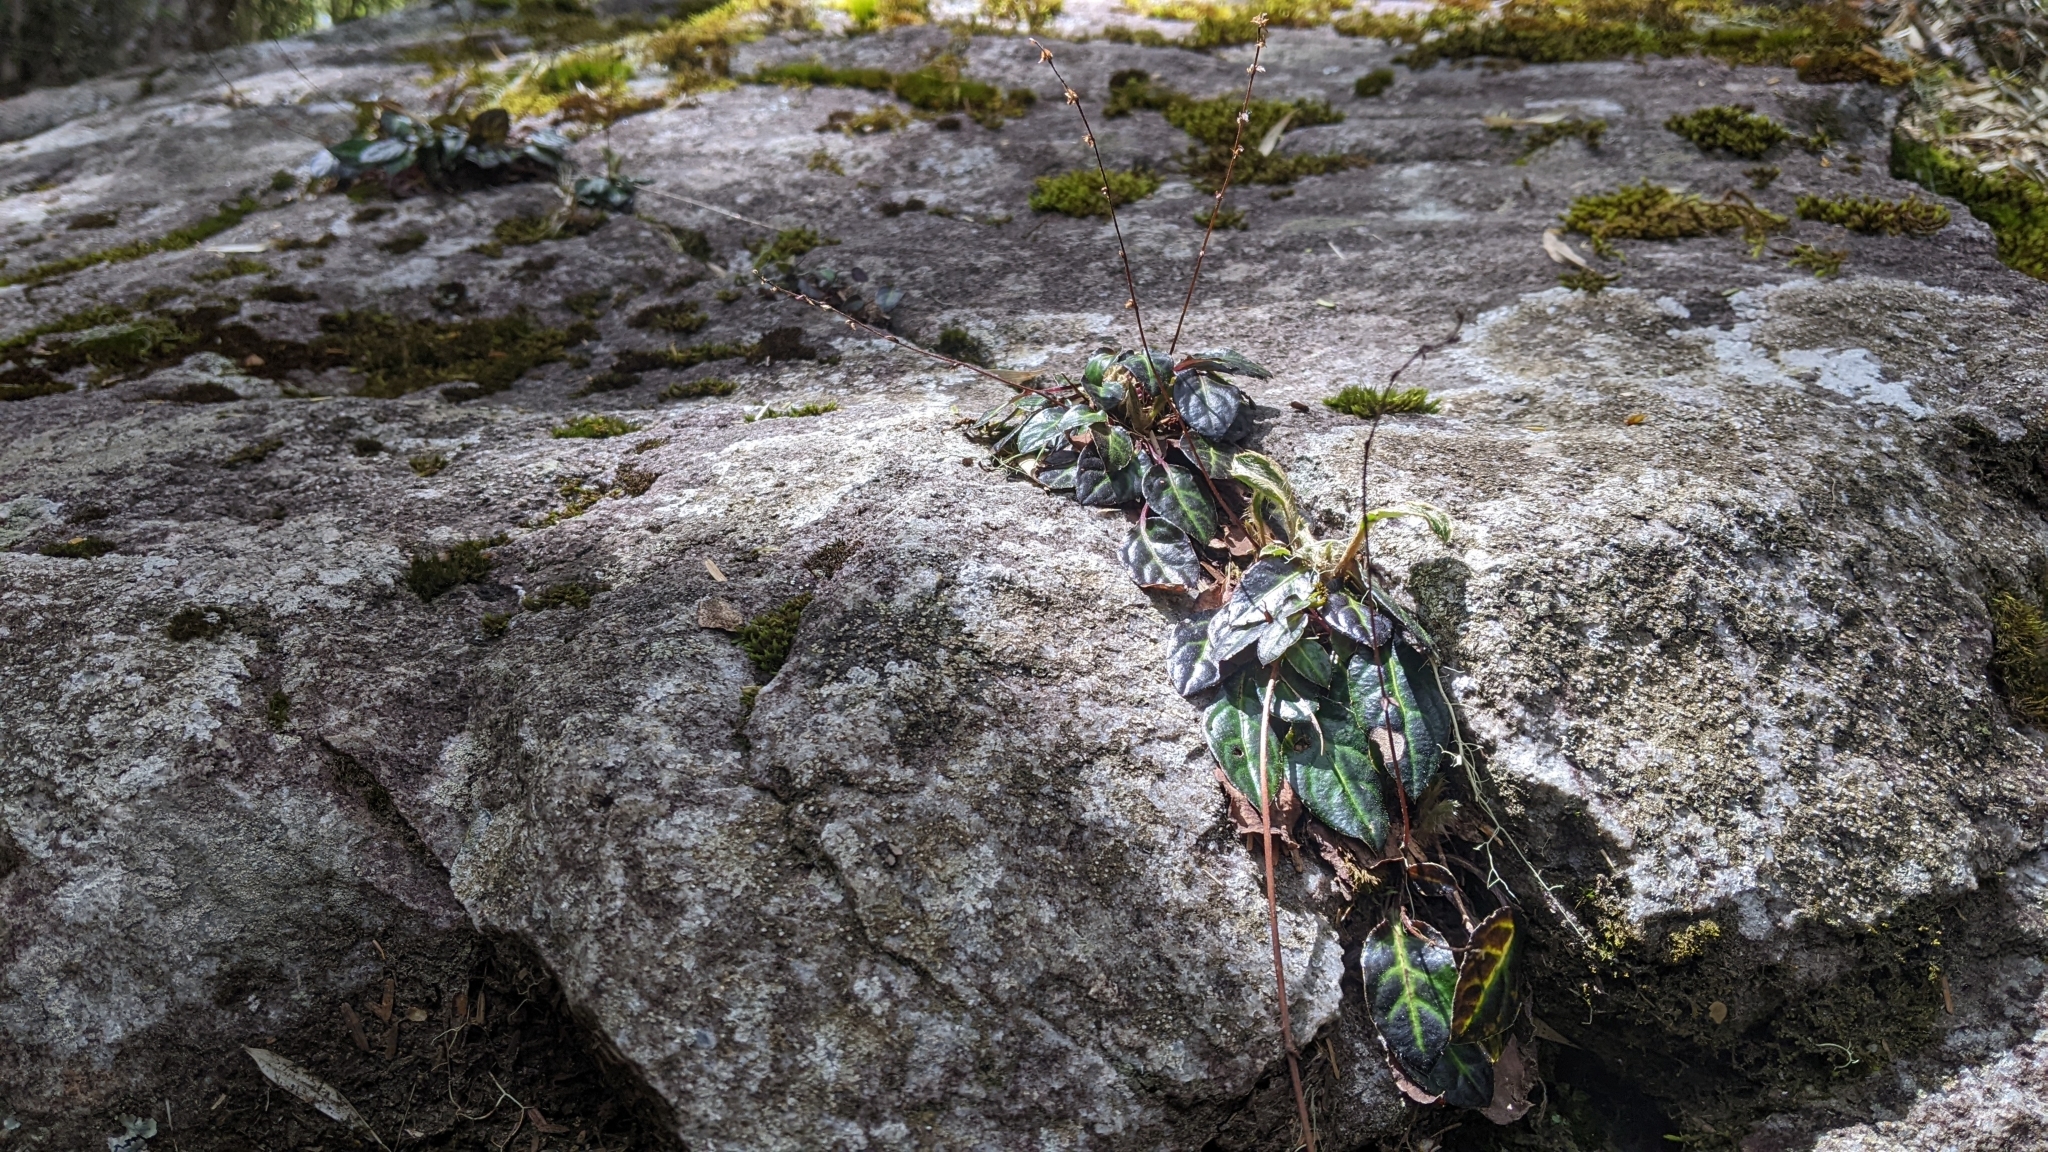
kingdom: Plantae
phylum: Tracheophyta
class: Magnoliopsida
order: Asterales
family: Asteraceae
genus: Ainsliaea
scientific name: Ainsliaea henryi
